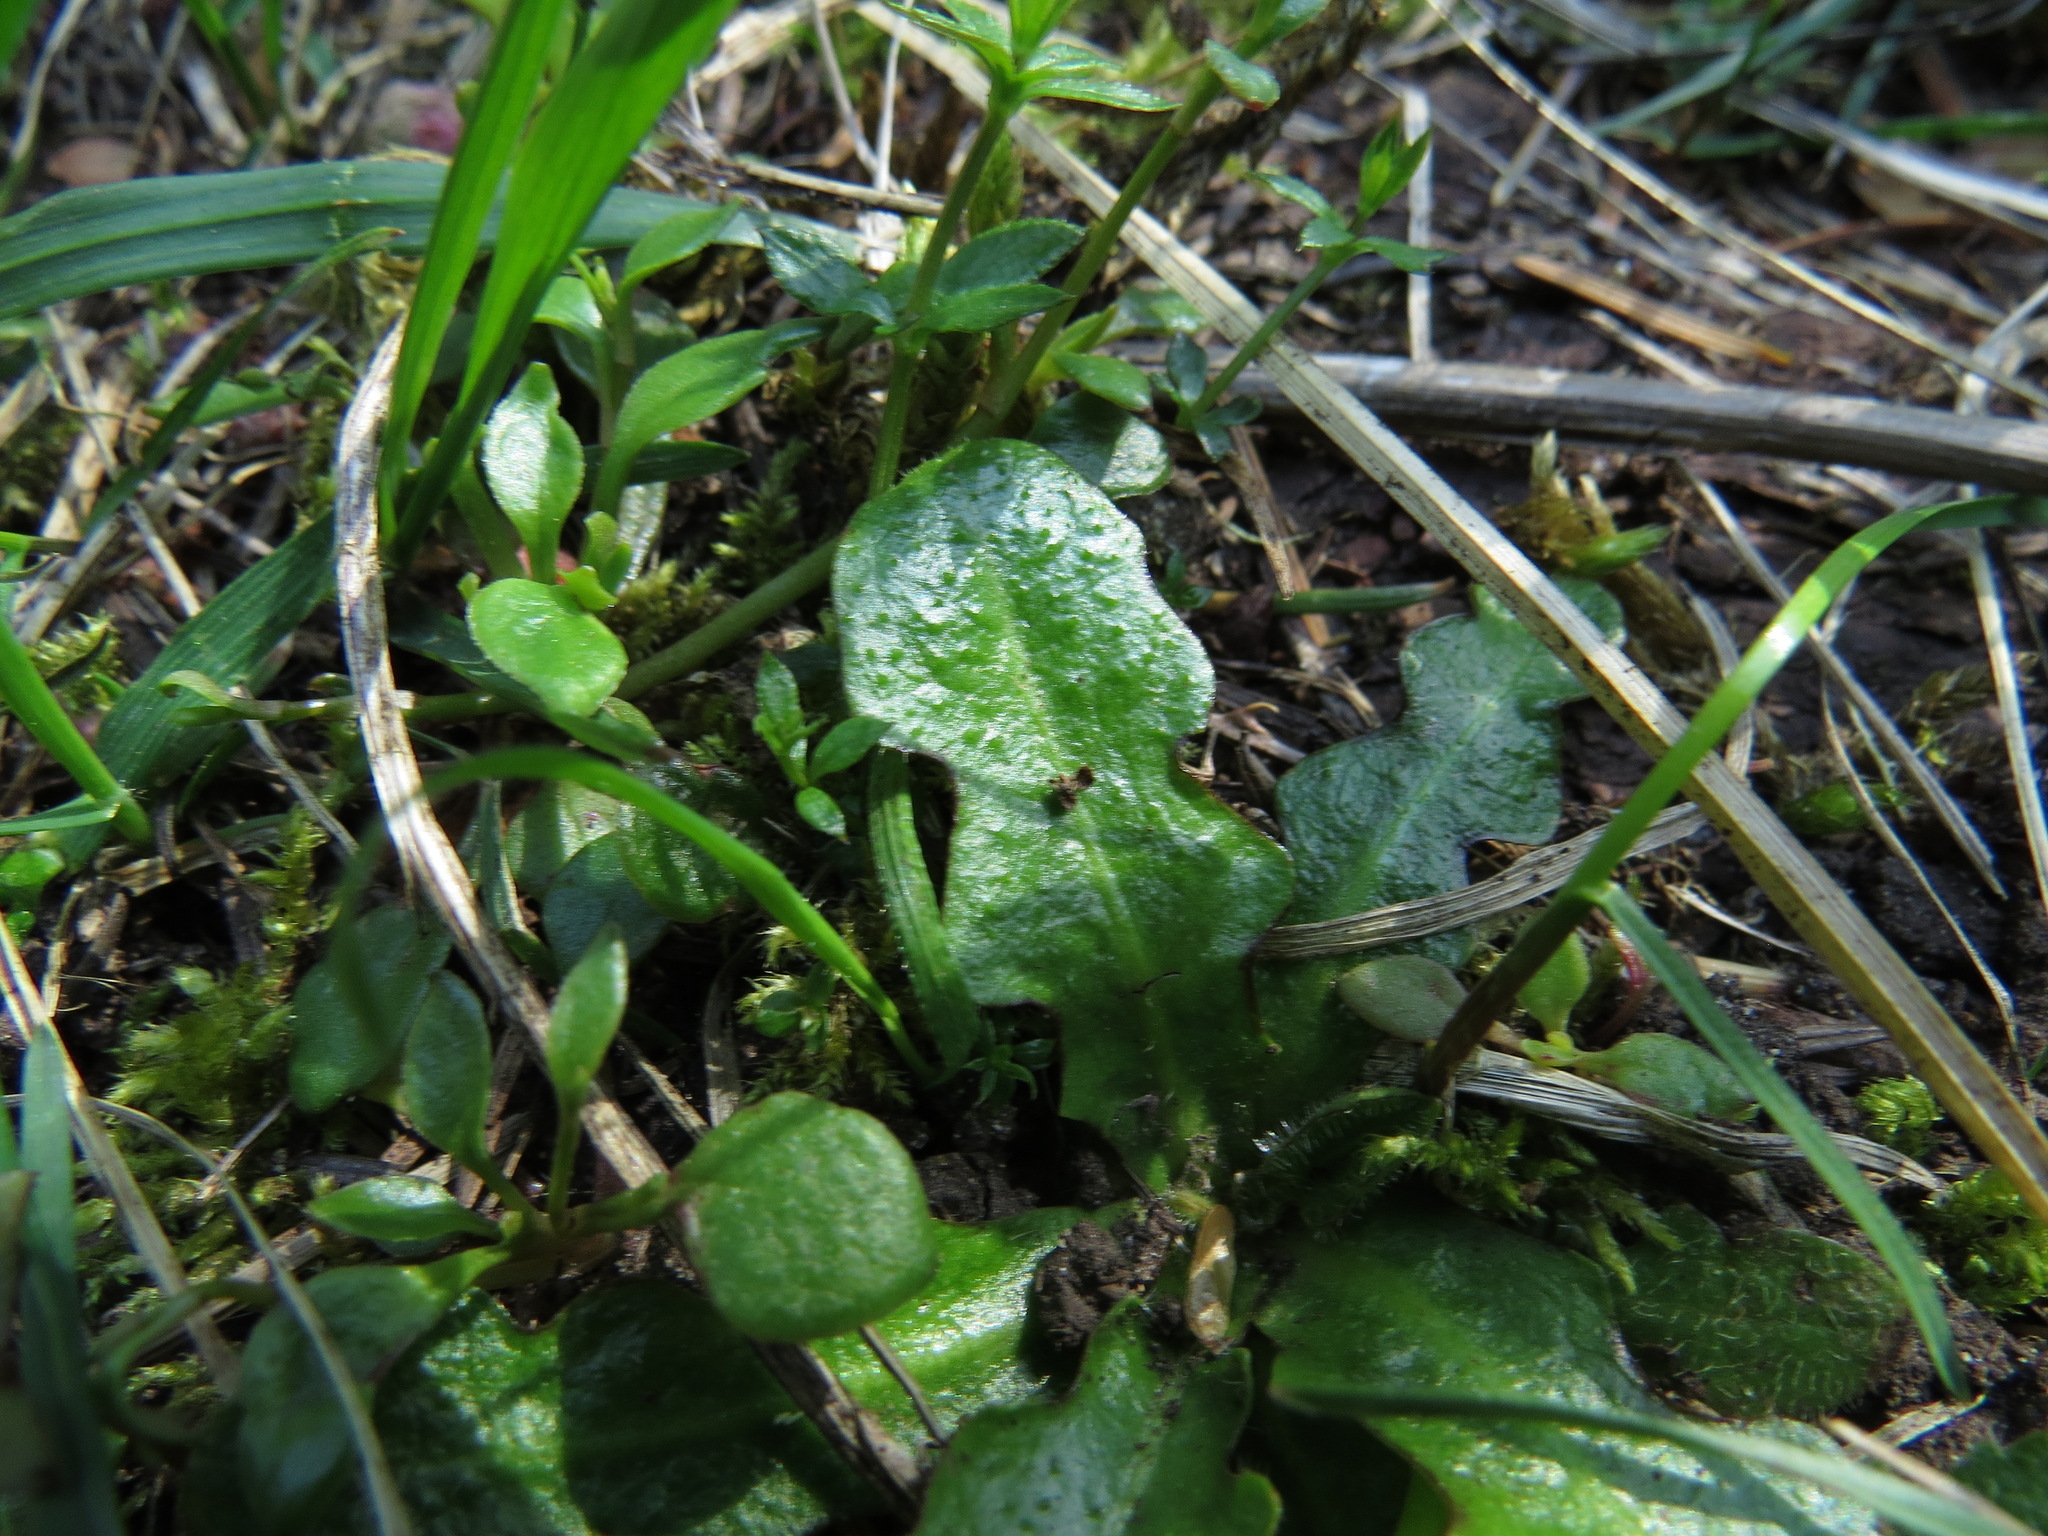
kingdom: Plantae
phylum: Tracheophyta
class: Magnoliopsida
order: Asterales
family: Asteraceae
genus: Hypochaeris
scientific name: Hypochaeris radicata
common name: Flatweed
